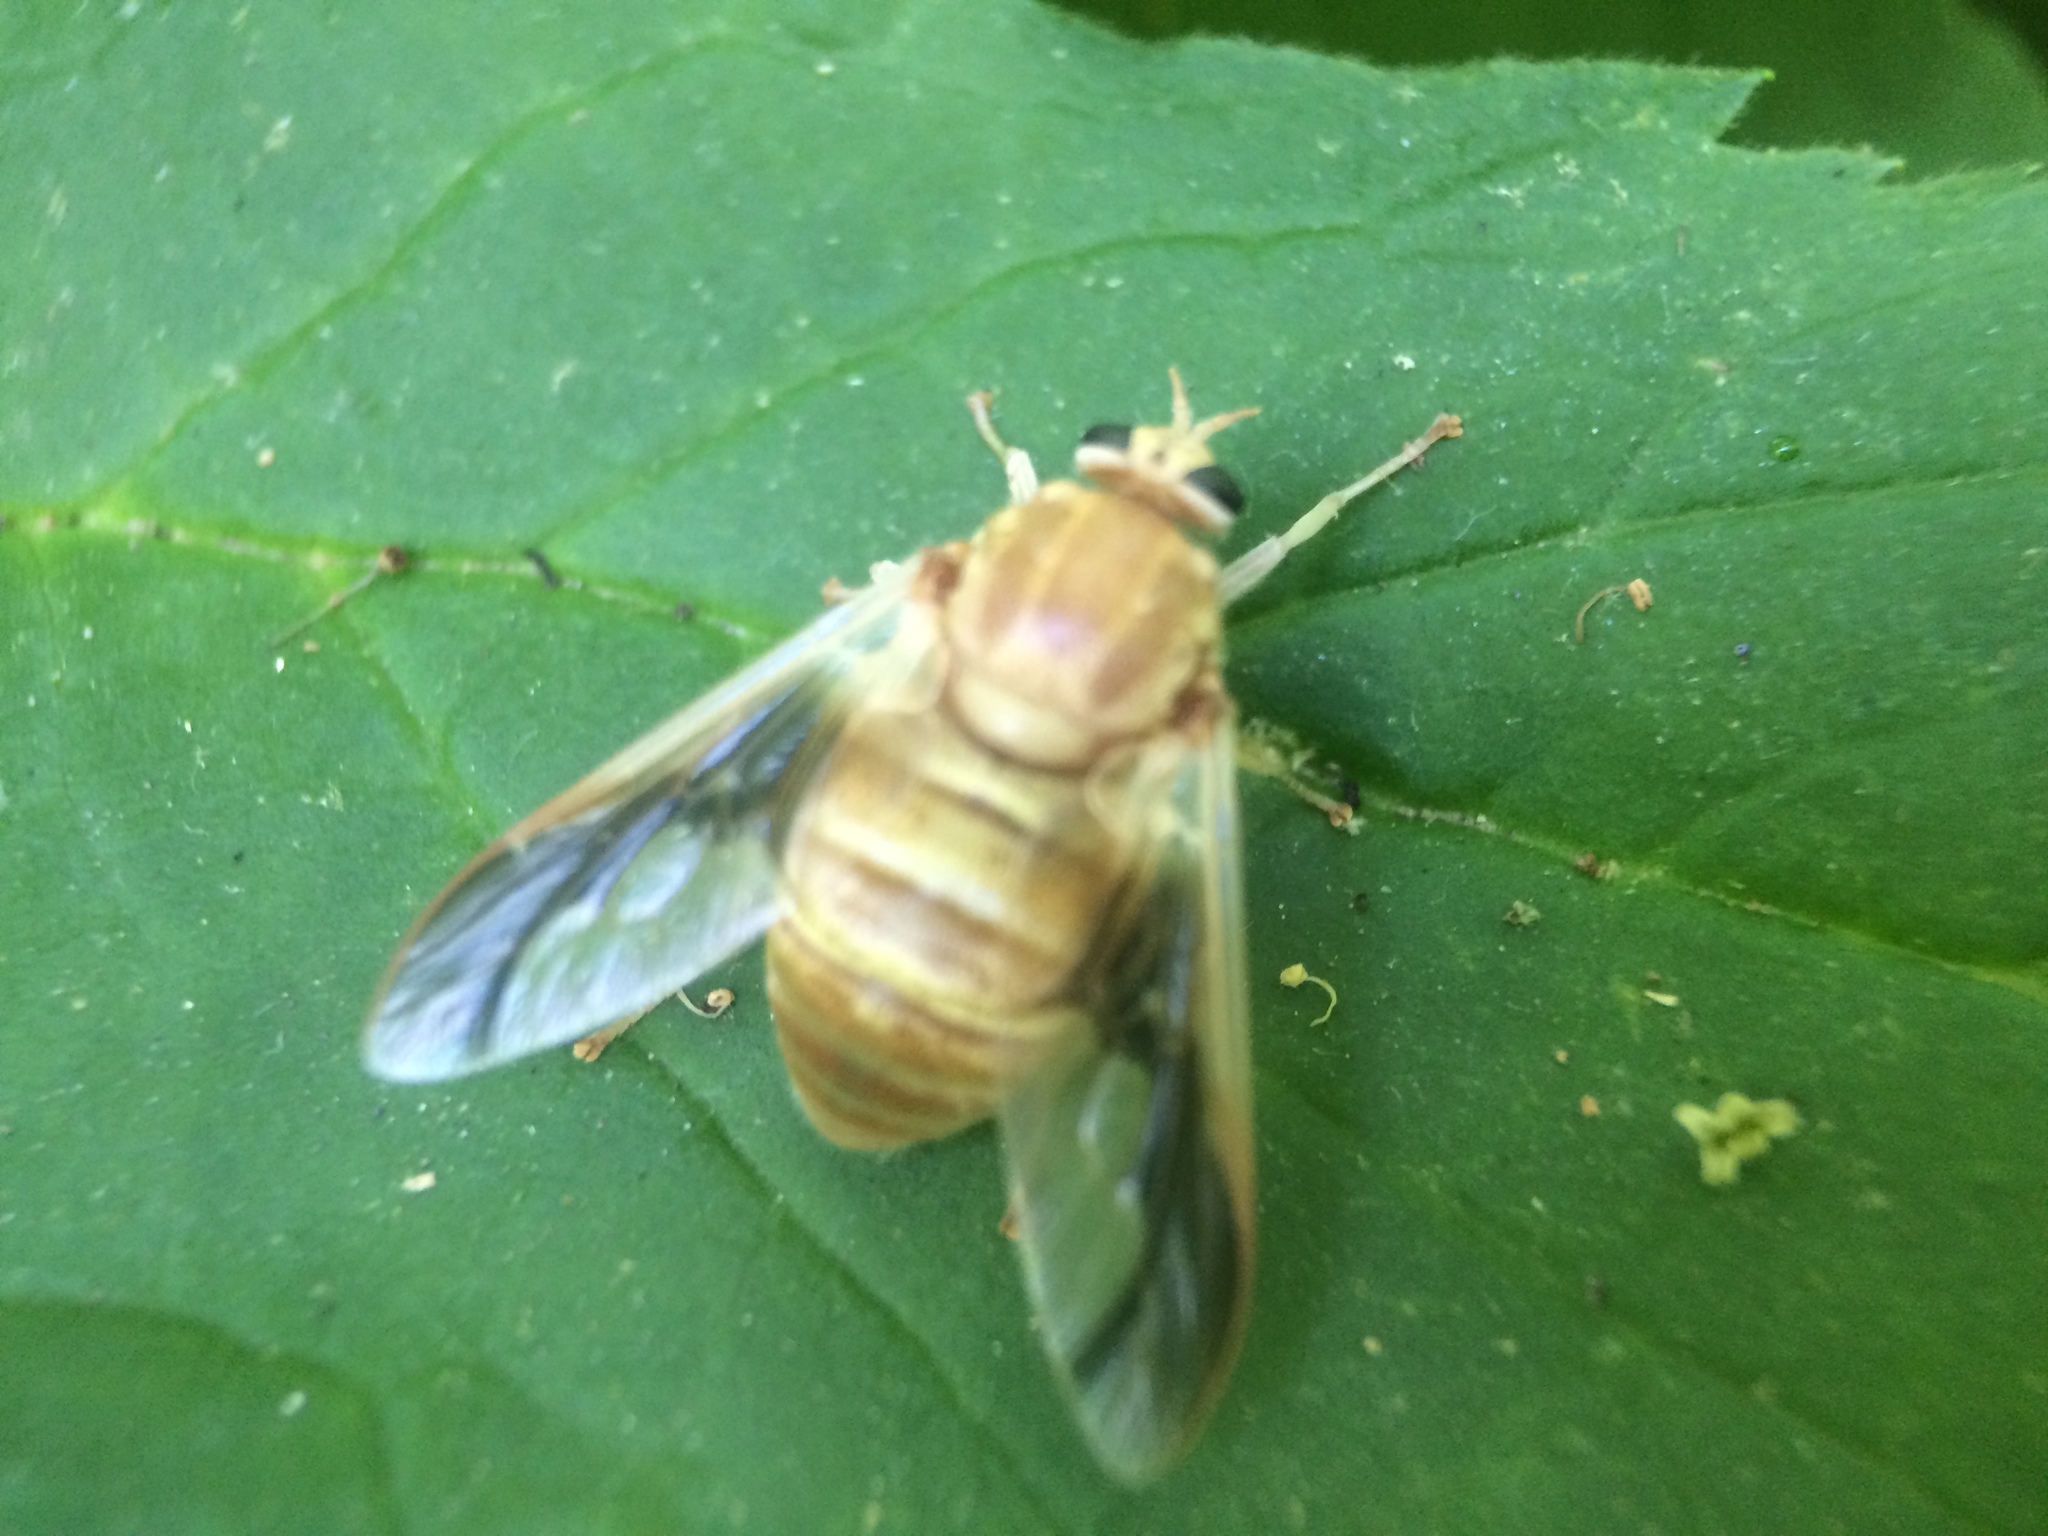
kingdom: Animalia
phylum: Arthropoda
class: Insecta
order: Diptera
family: Tabanidae
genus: Goniops
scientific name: Goniops chrysocoma
